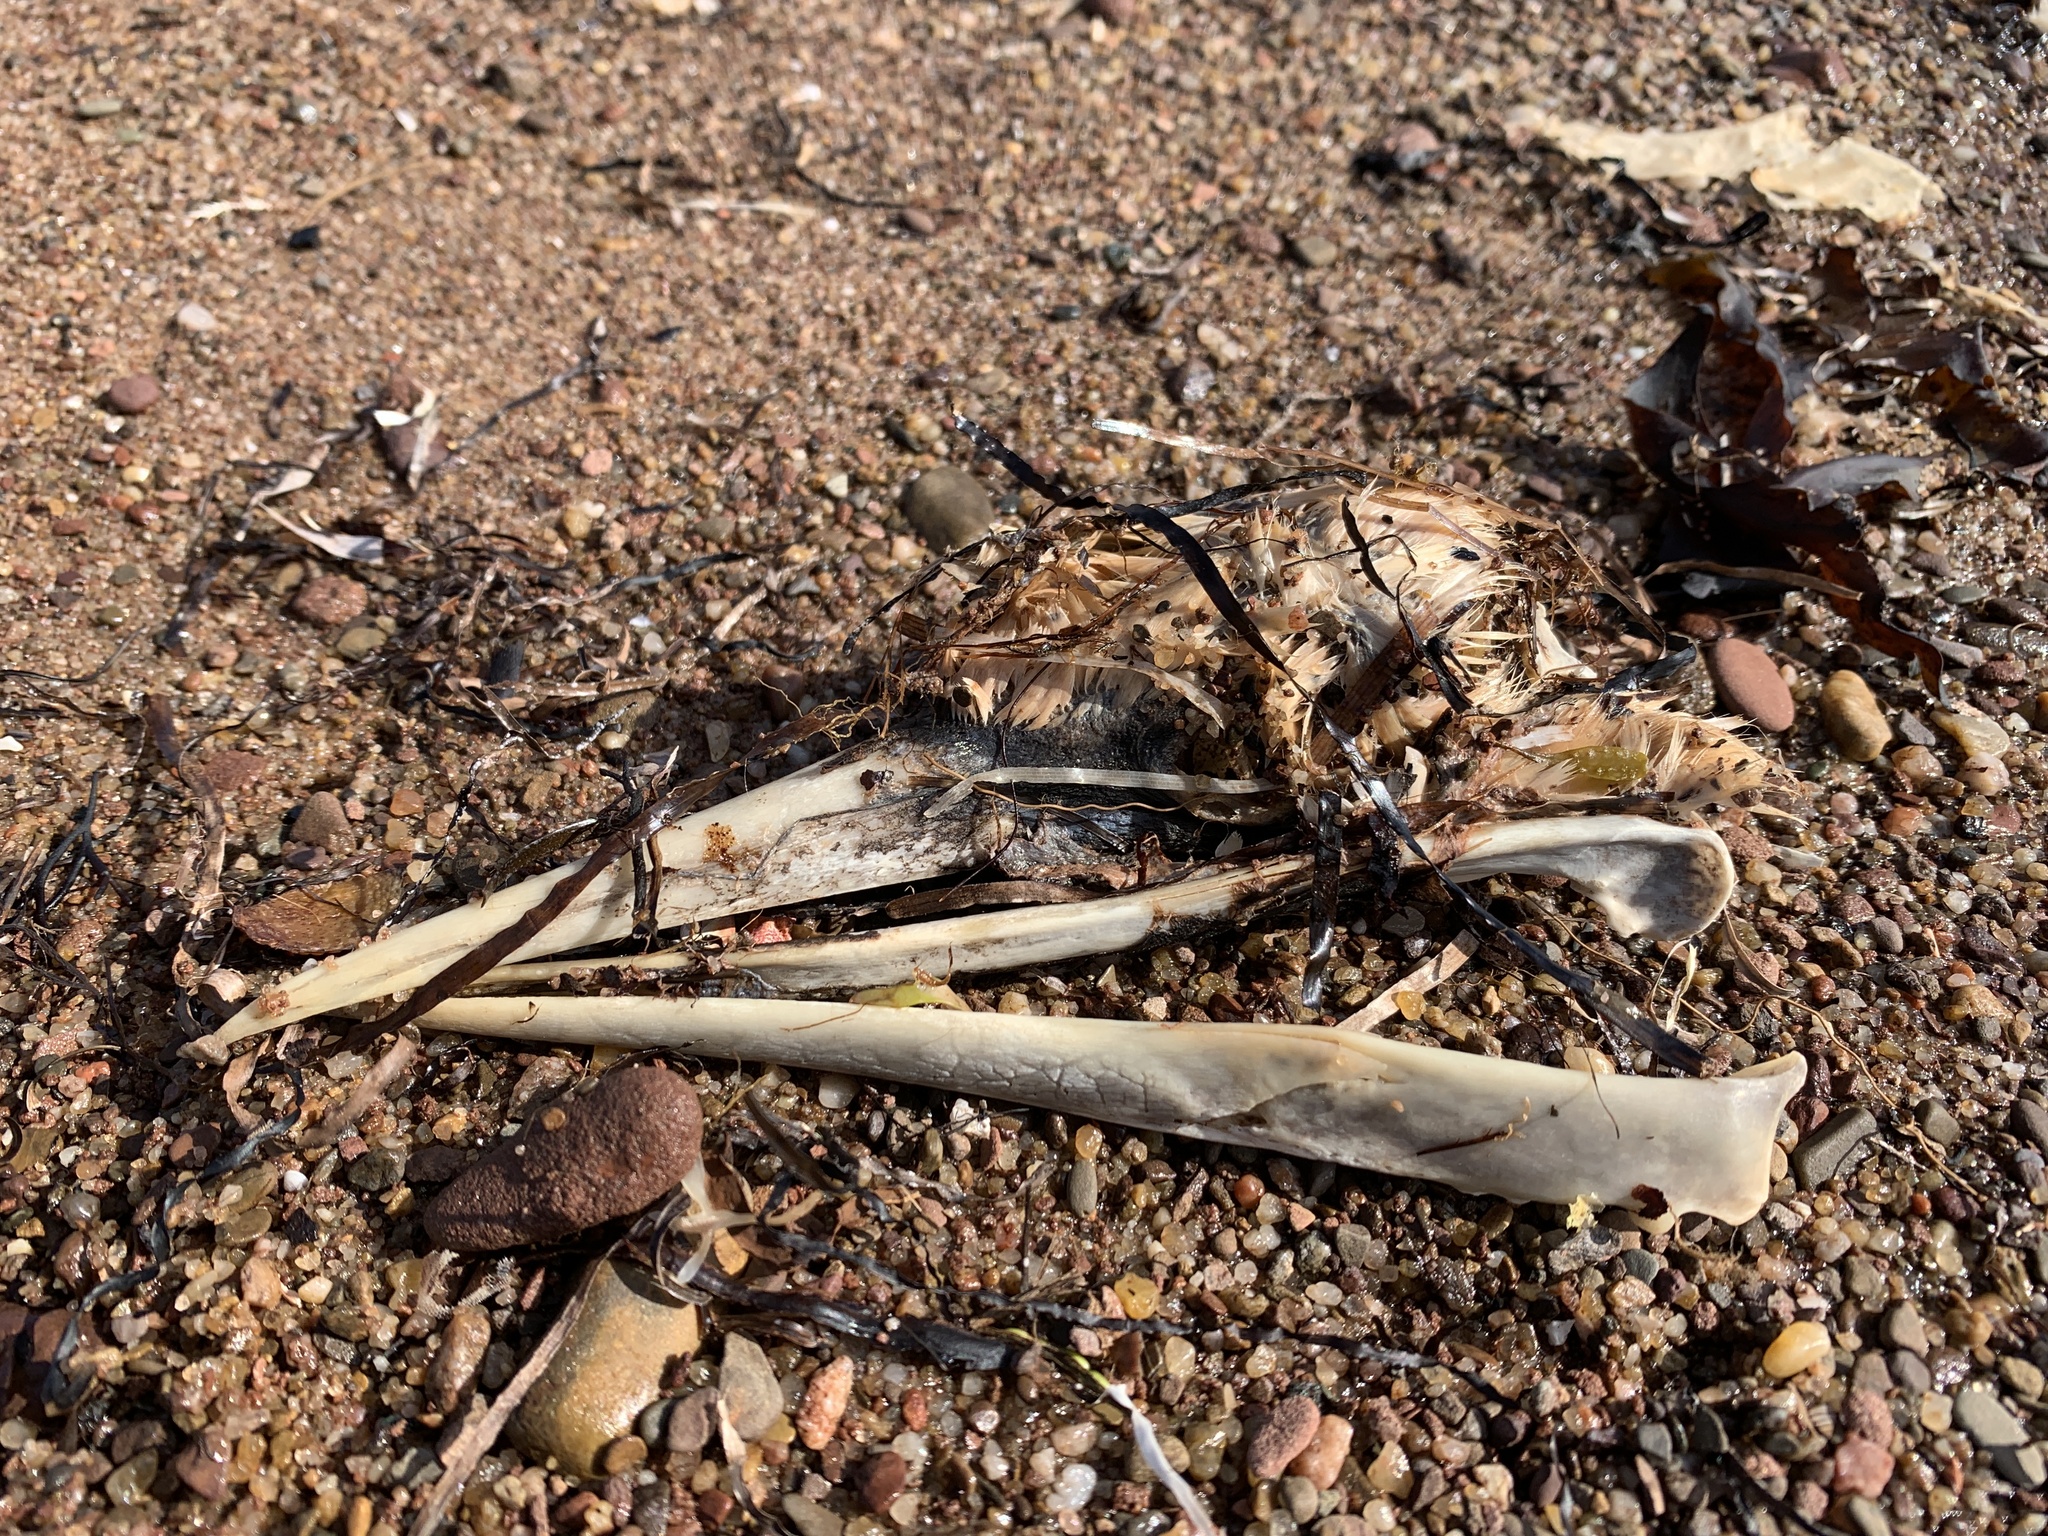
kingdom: Animalia
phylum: Chordata
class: Aves
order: Suliformes
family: Sulidae
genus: Morus
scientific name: Morus bassanus
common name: Northern gannet
